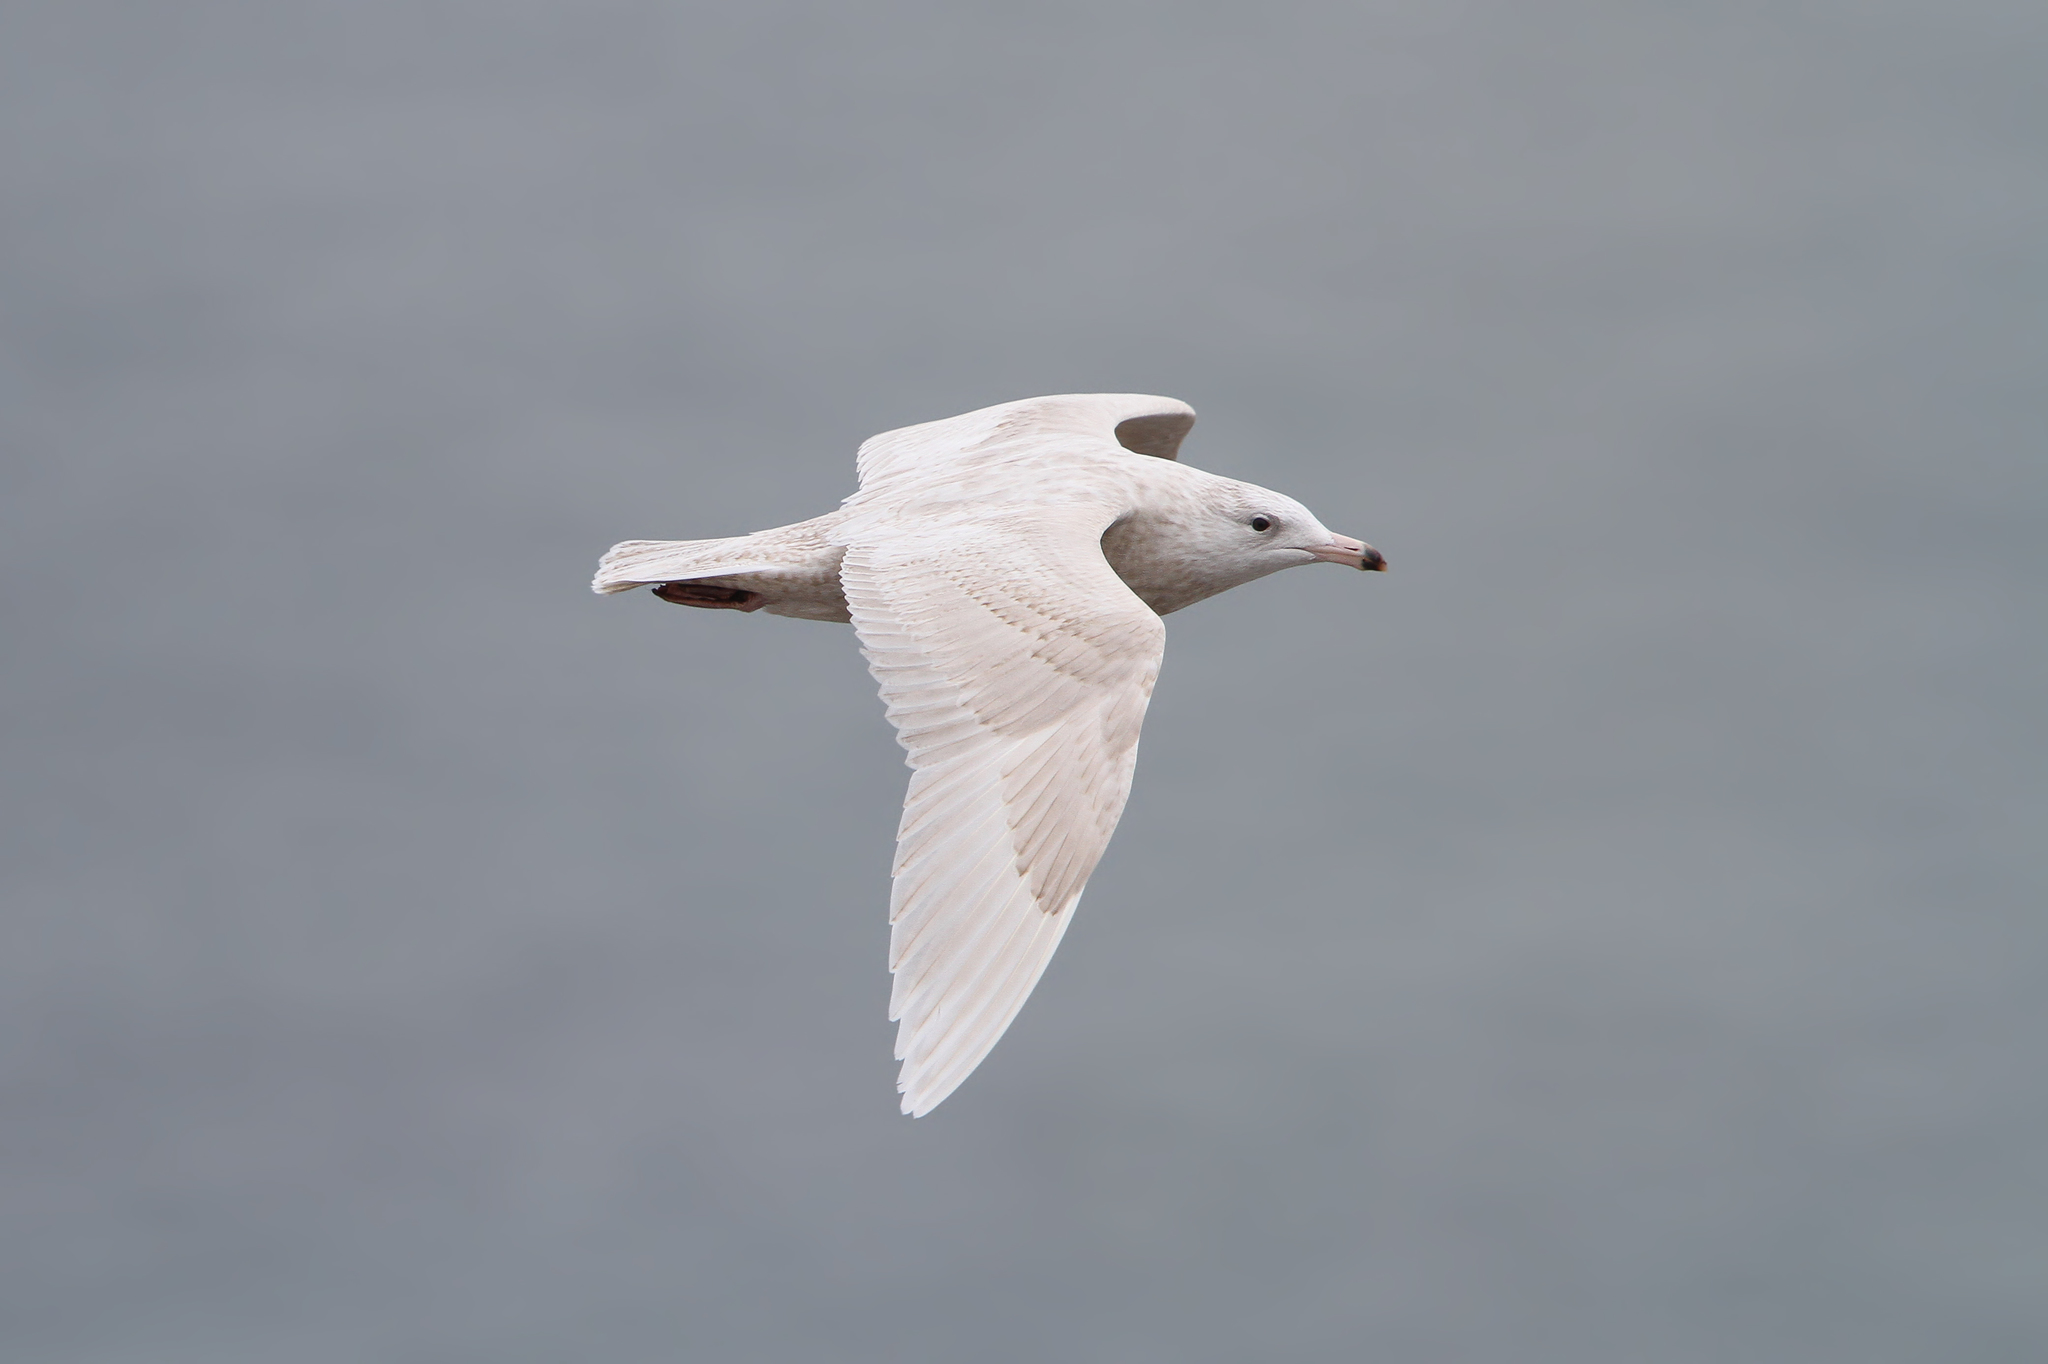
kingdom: Animalia
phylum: Chordata
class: Aves
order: Charadriiformes
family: Laridae
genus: Larus
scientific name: Larus hyperboreus
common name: Glaucous gull
